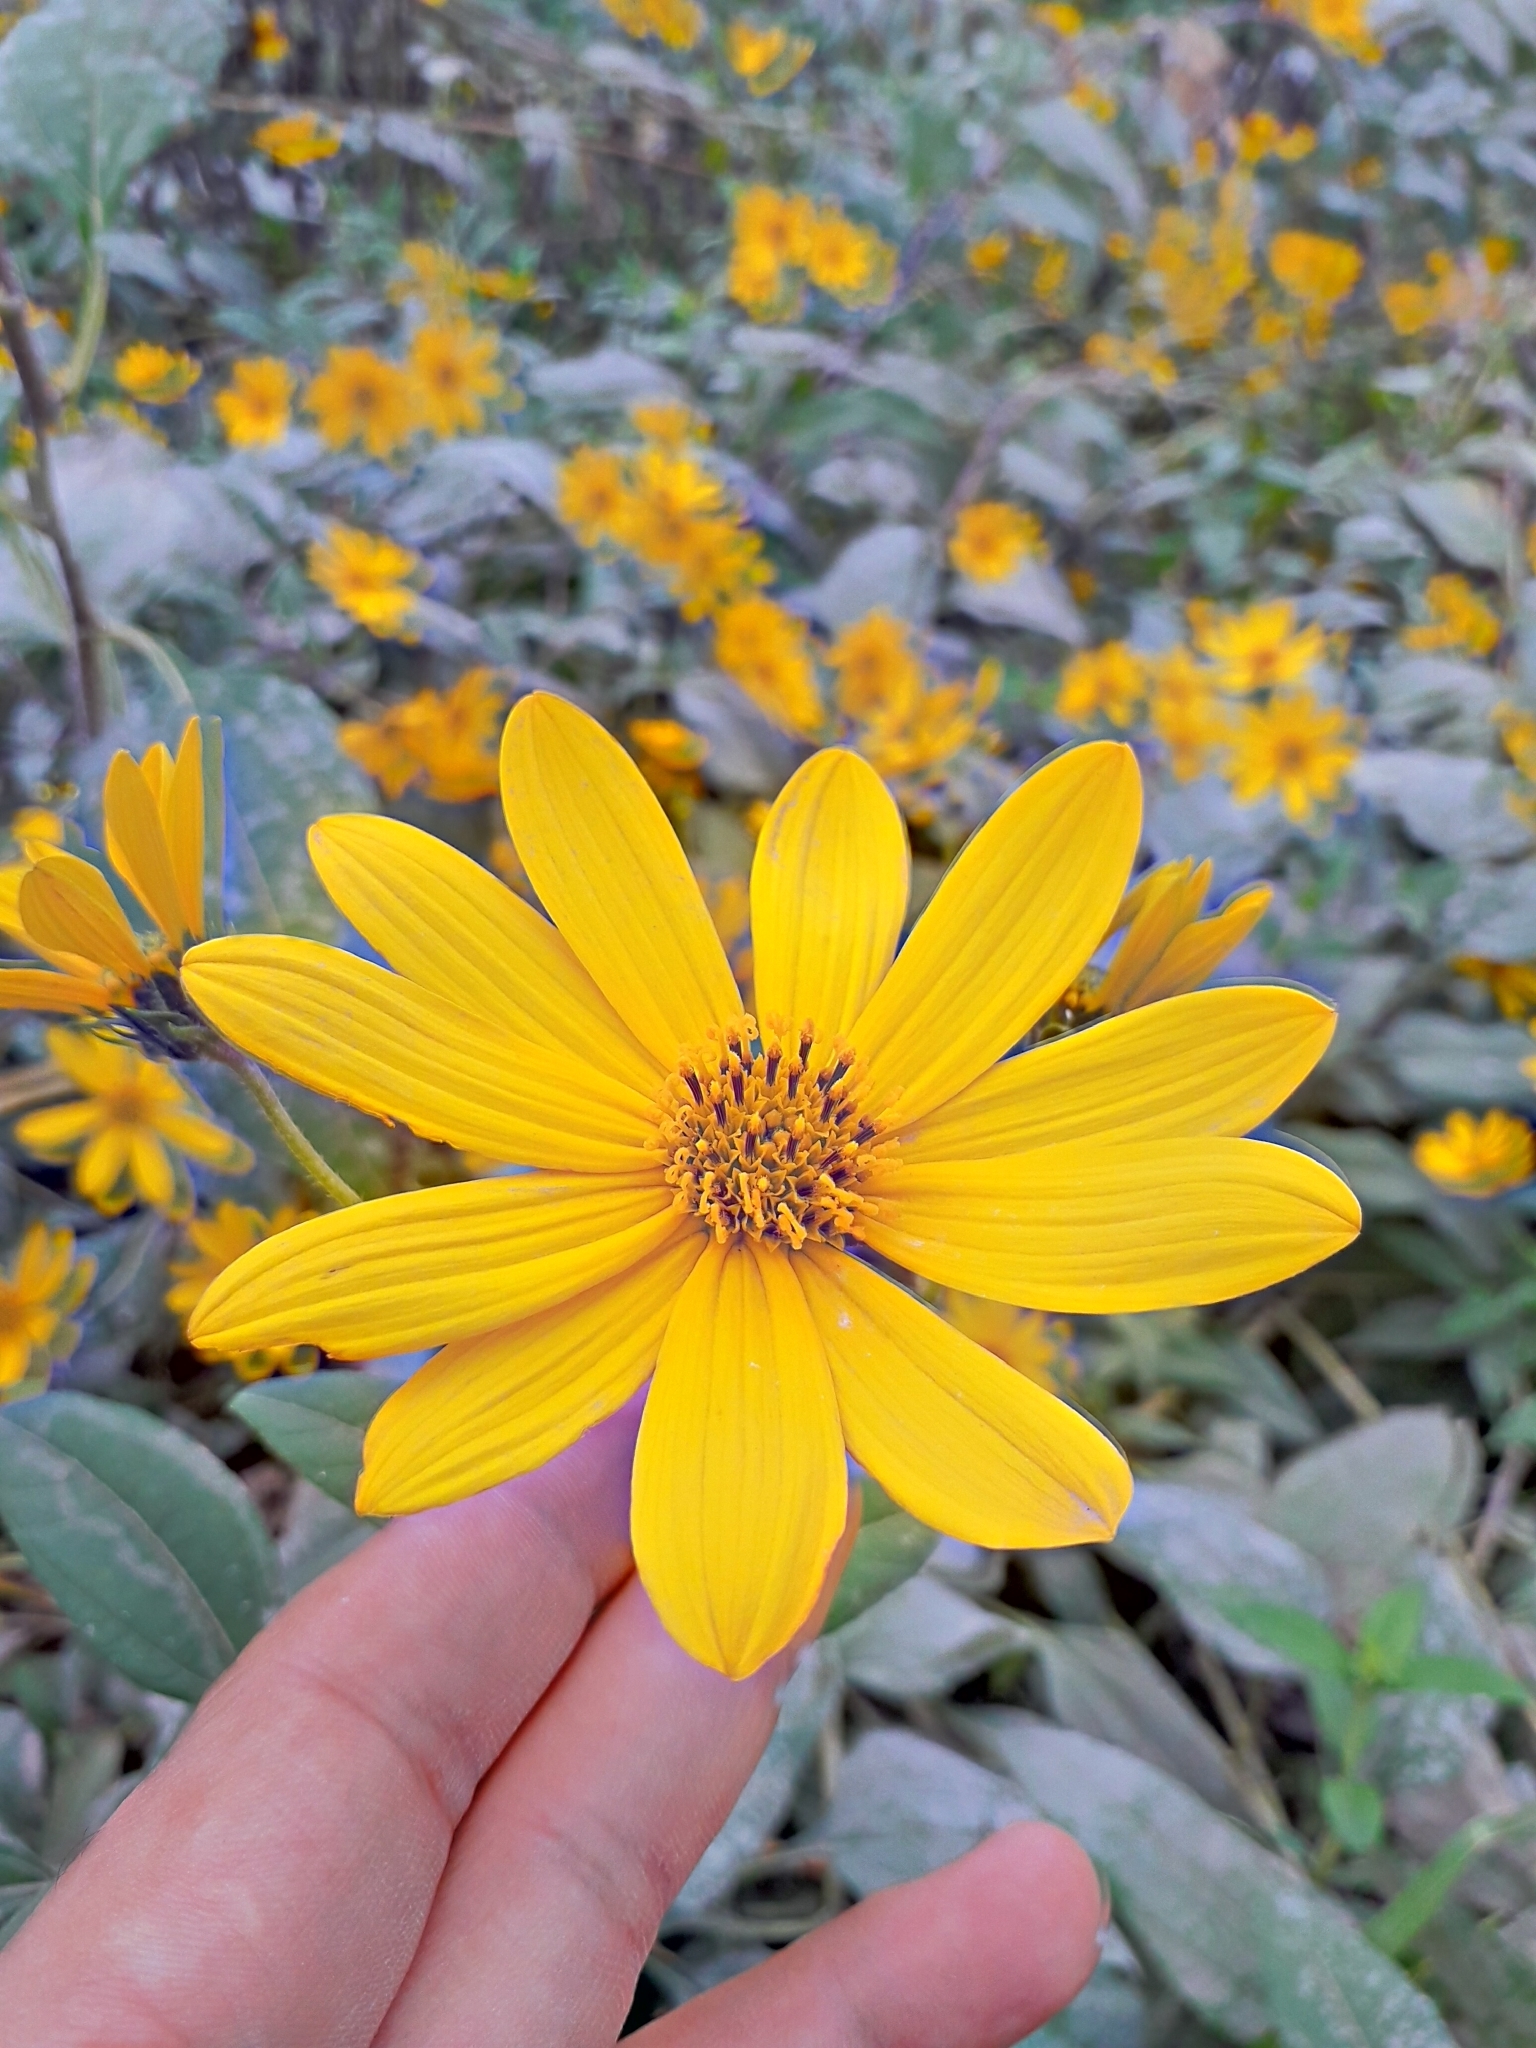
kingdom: Plantae
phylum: Tracheophyta
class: Magnoliopsida
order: Asterales
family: Asteraceae
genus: Helianthus
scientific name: Helianthus tuberosus
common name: Jerusalem artichoke
